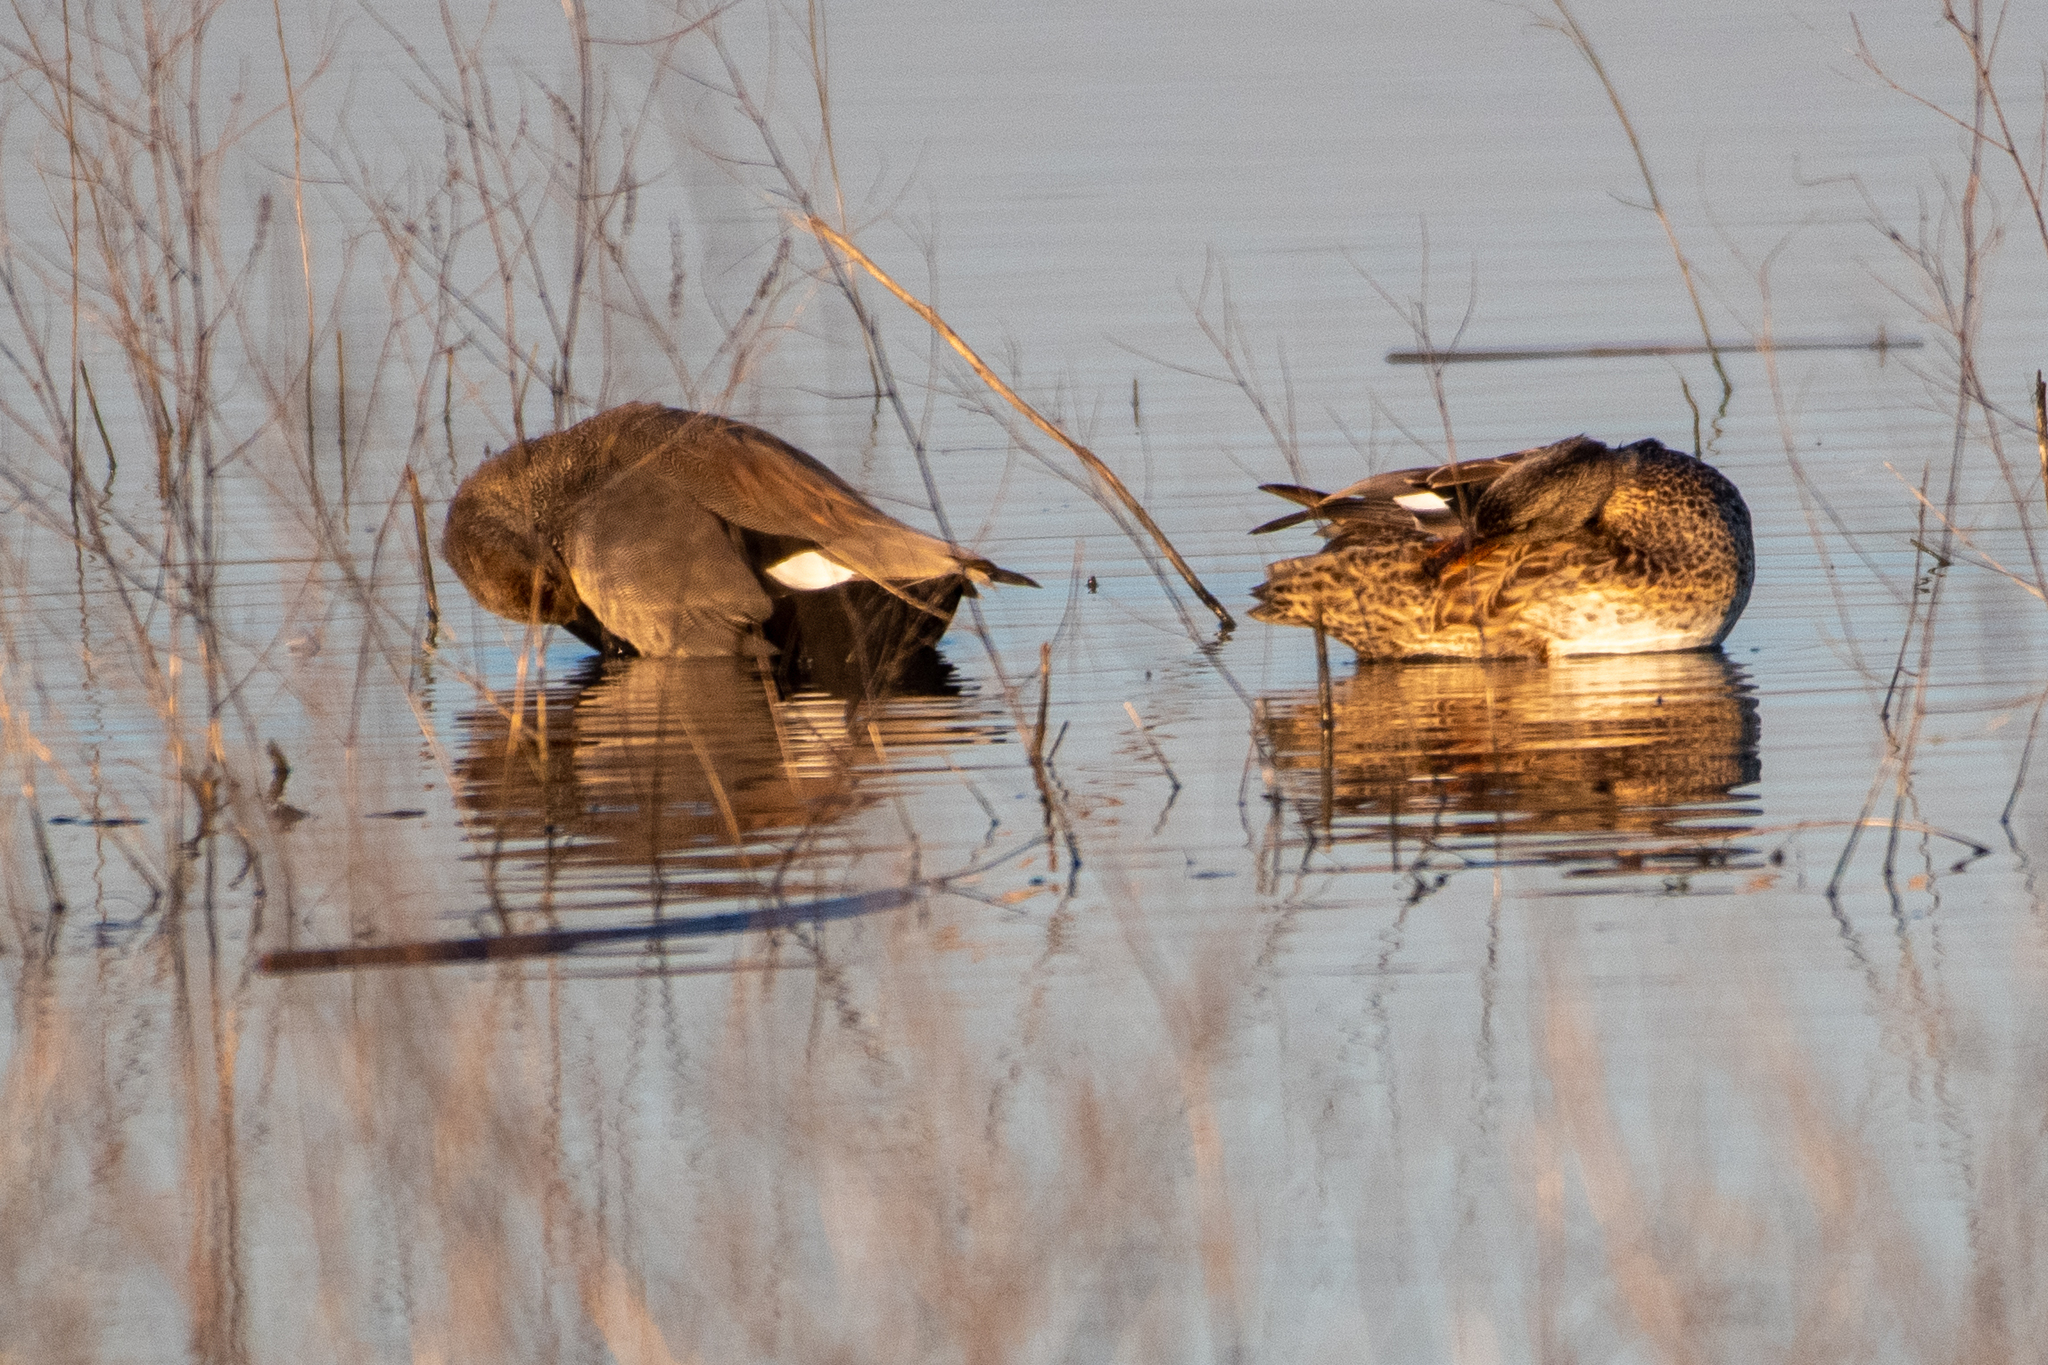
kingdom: Animalia
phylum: Chordata
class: Aves
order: Anseriformes
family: Anatidae
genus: Mareca
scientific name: Mareca strepera
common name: Gadwall
